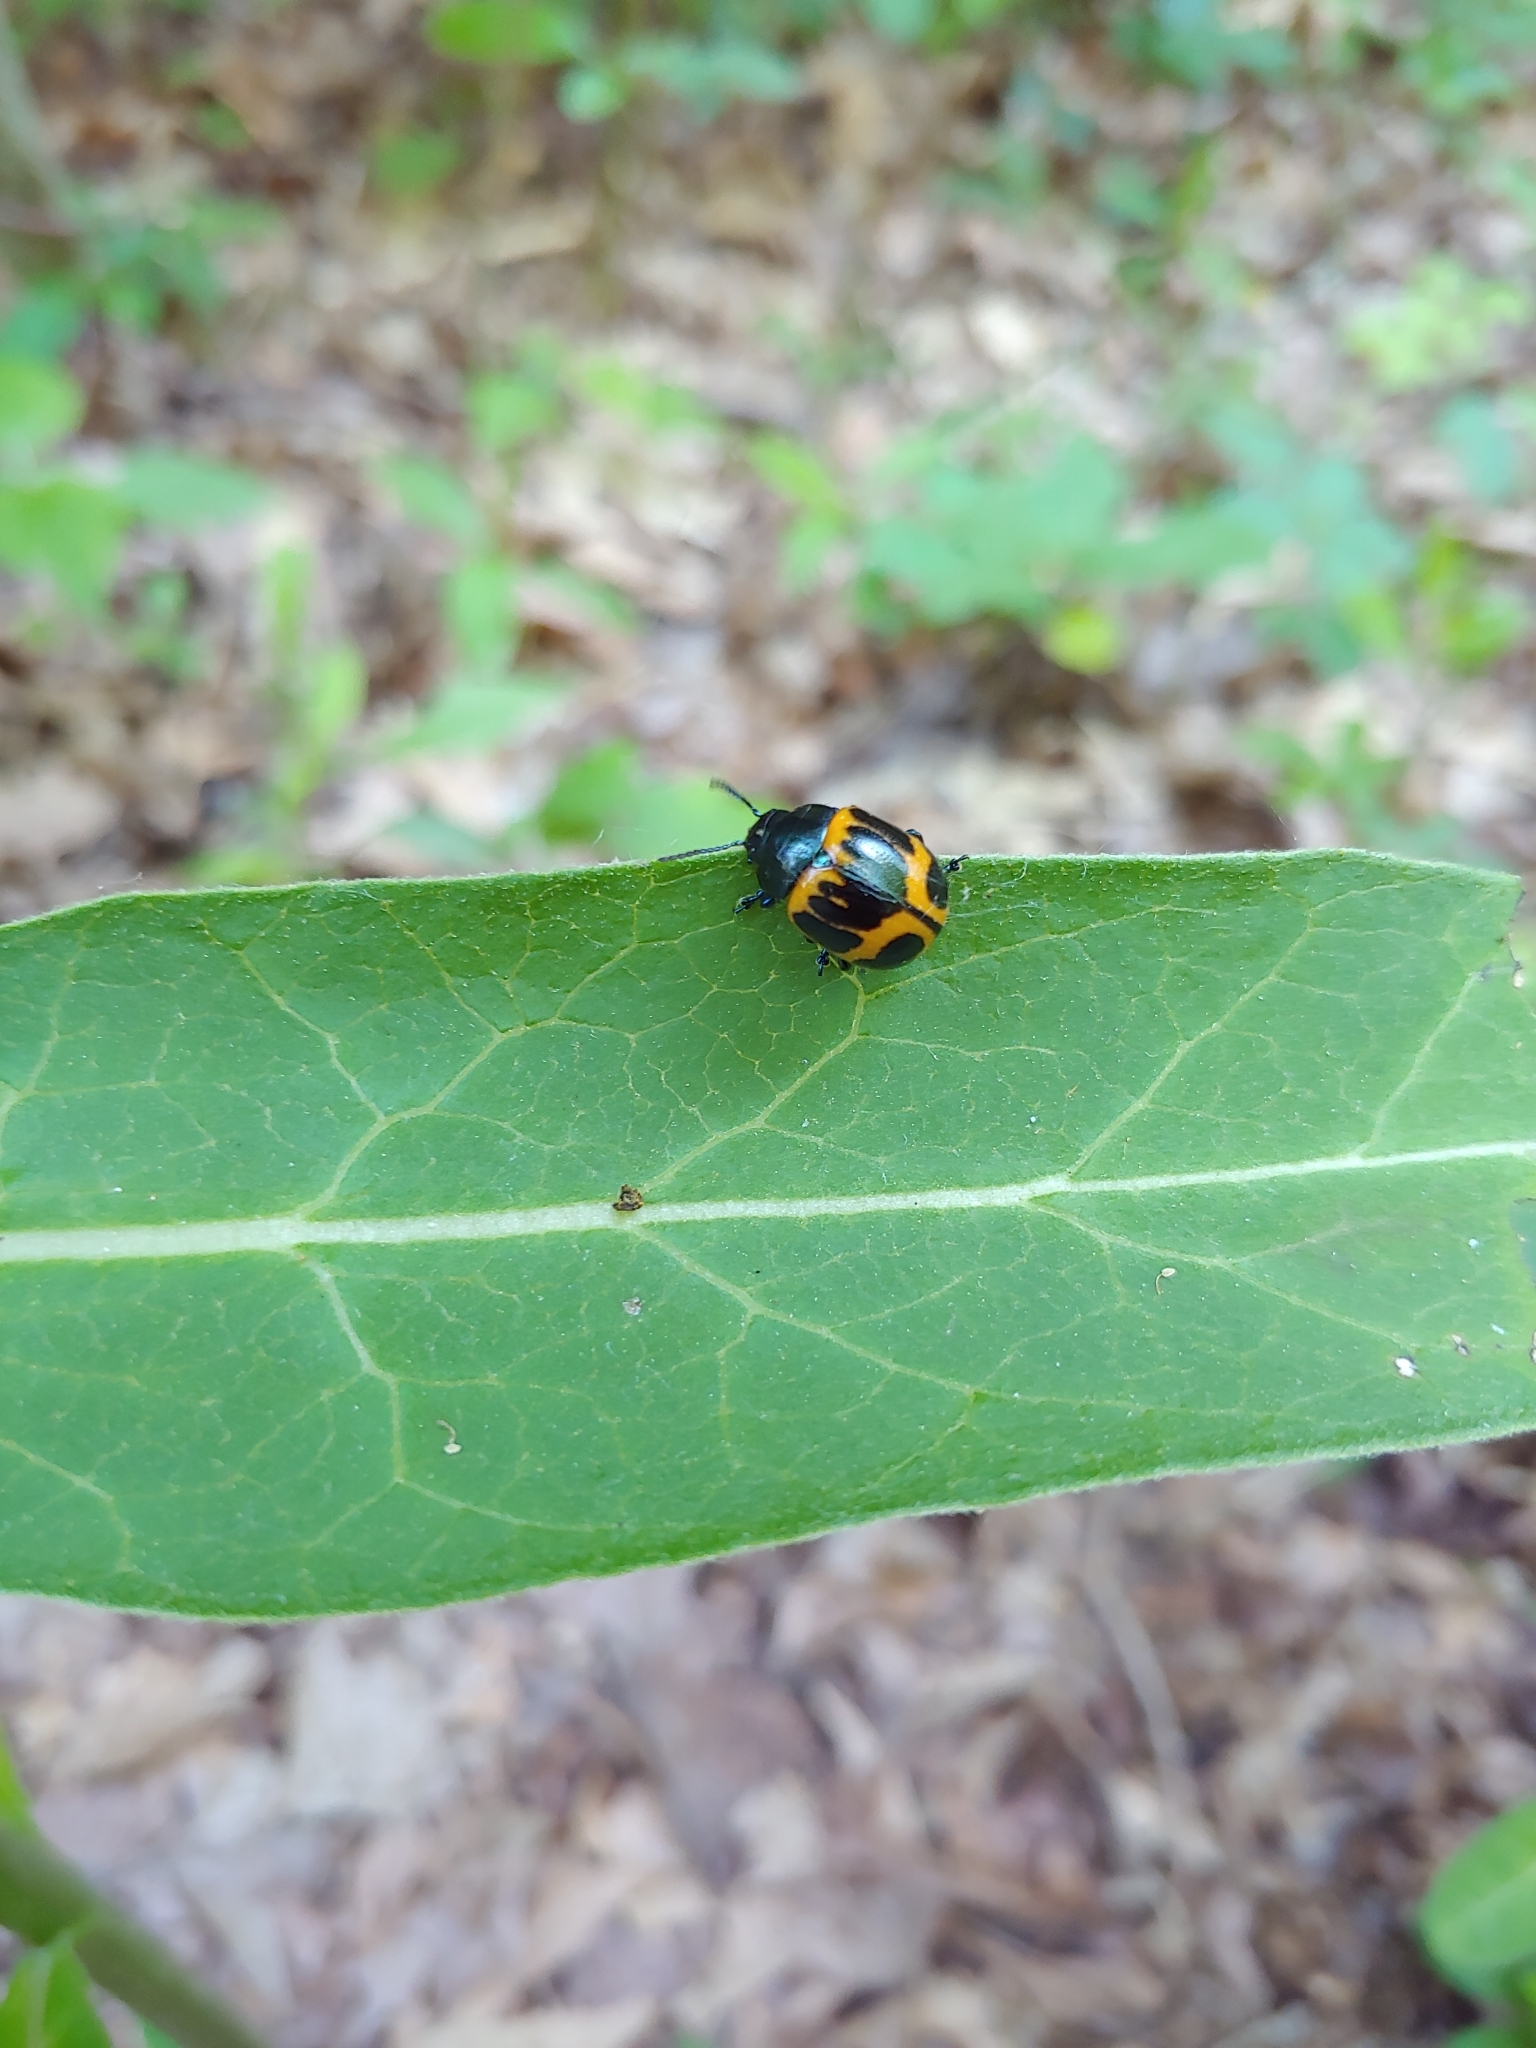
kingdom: Animalia
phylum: Arthropoda
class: Insecta
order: Coleoptera
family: Chrysomelidae
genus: Labidomera
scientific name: Labidomera clivicollis
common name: Swamp milkweed leaf beetle
